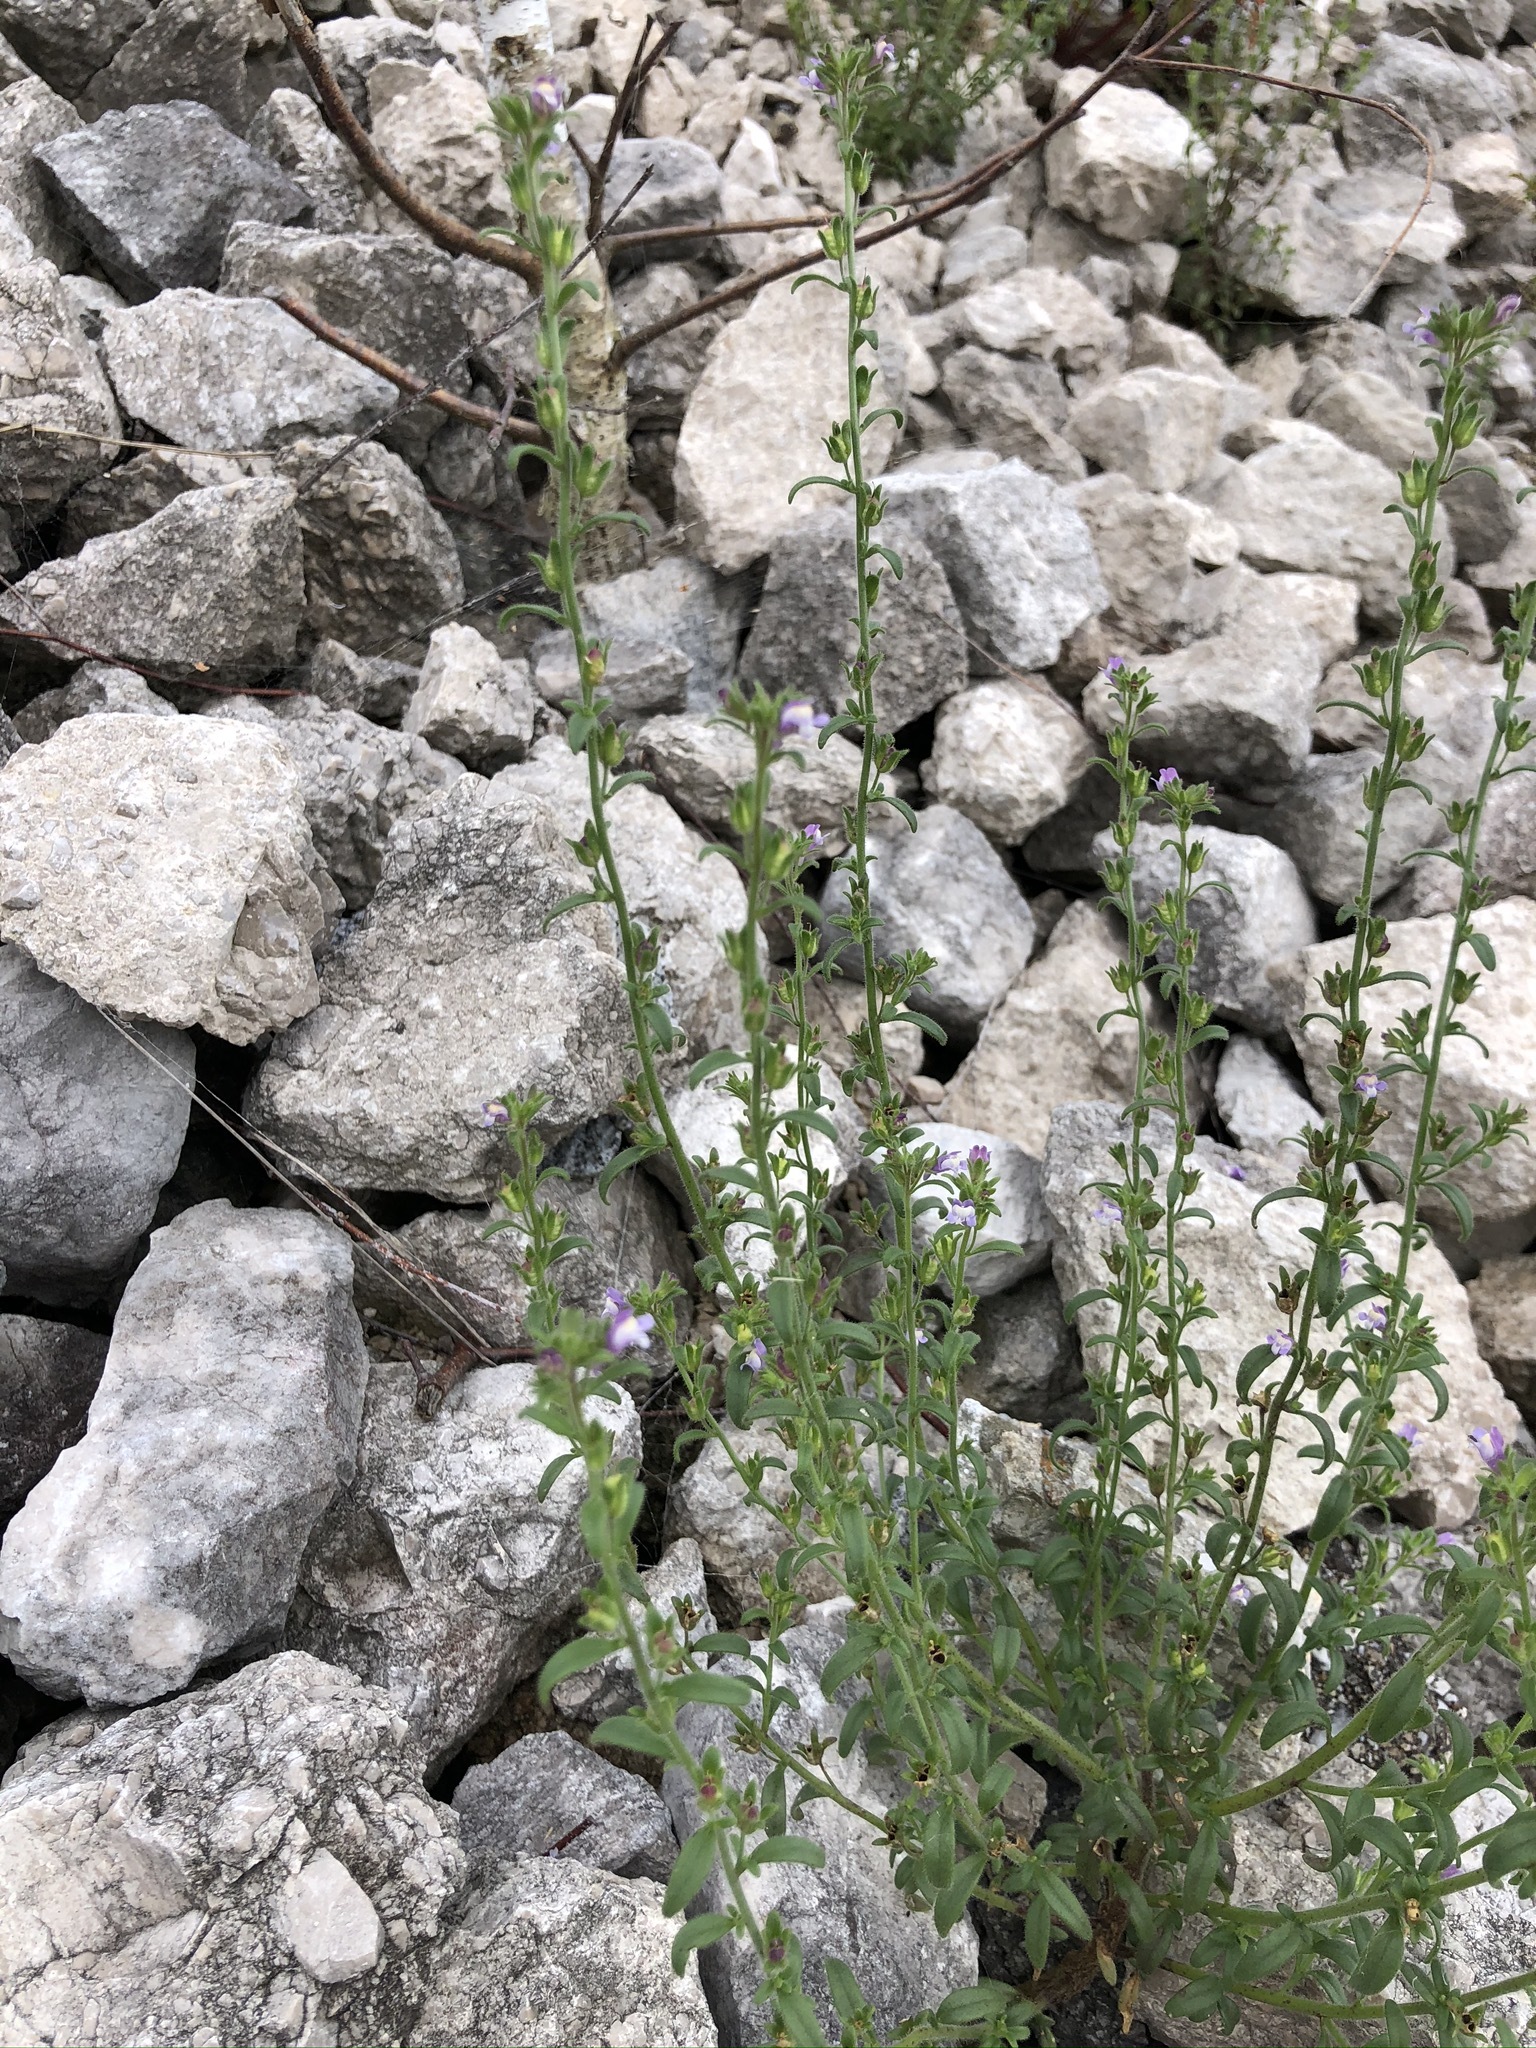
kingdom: Plantae
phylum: Tracheophyta
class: Magnoliopsida
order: Lamiales
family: Plantaginaceae
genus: Chaenorhinum
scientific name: Chaenorhinum minus
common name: Dwarf snapdragon
